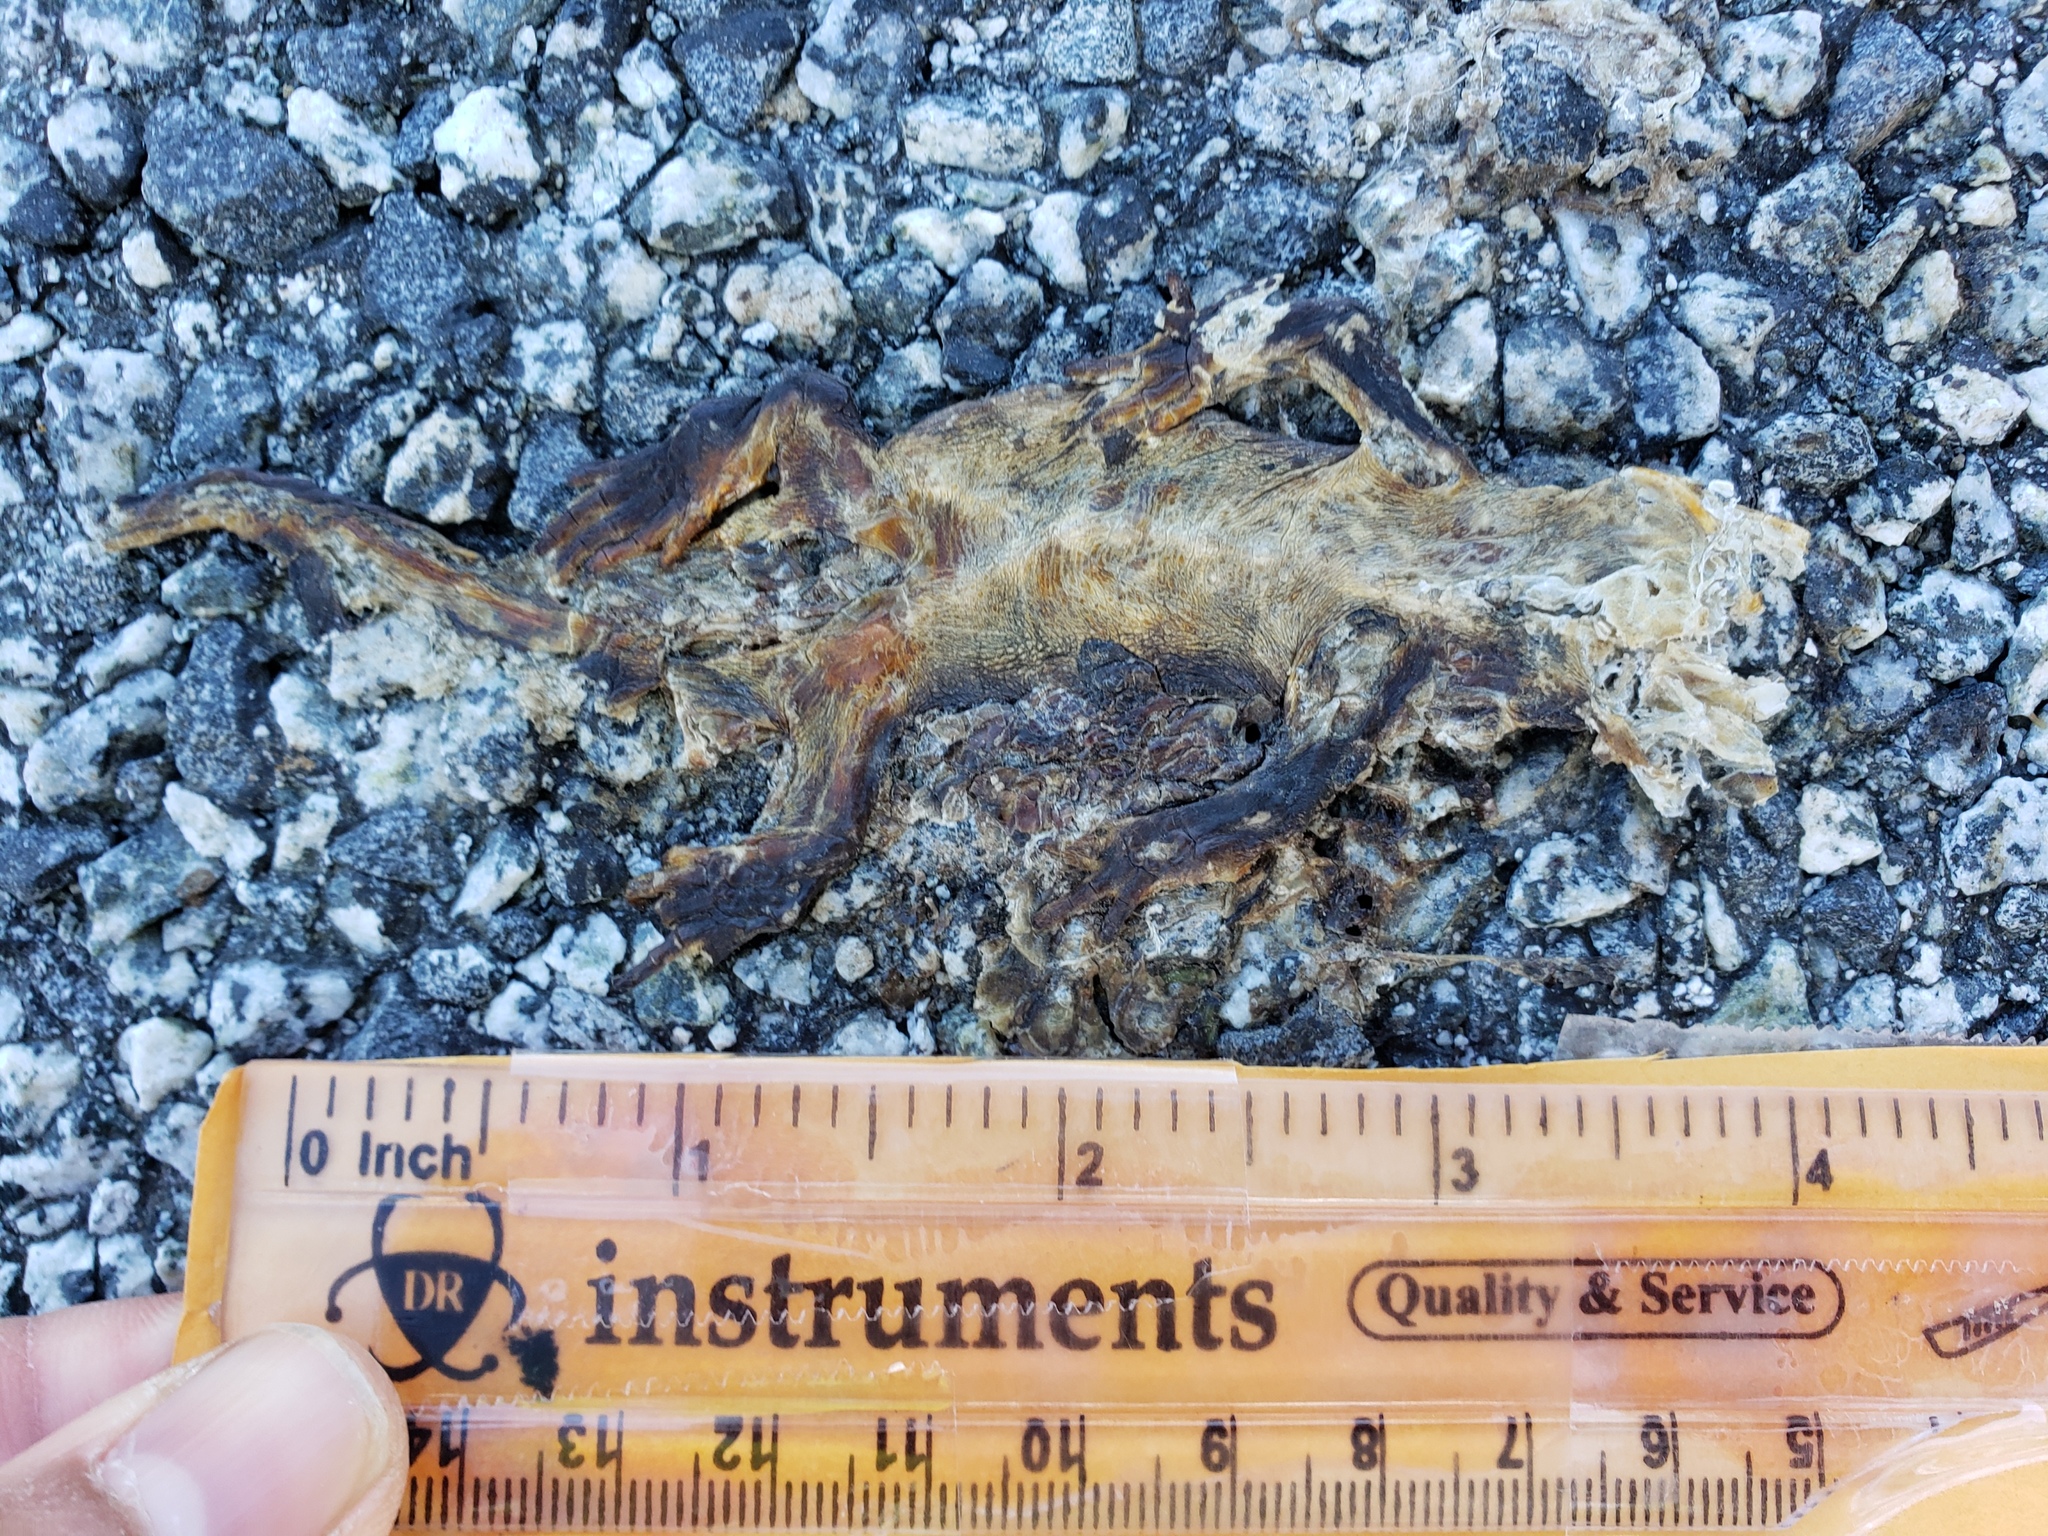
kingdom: Animalia
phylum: Chordata
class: Amphibia
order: Caudata
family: Salamandridae
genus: Taricha
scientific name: Taricha
